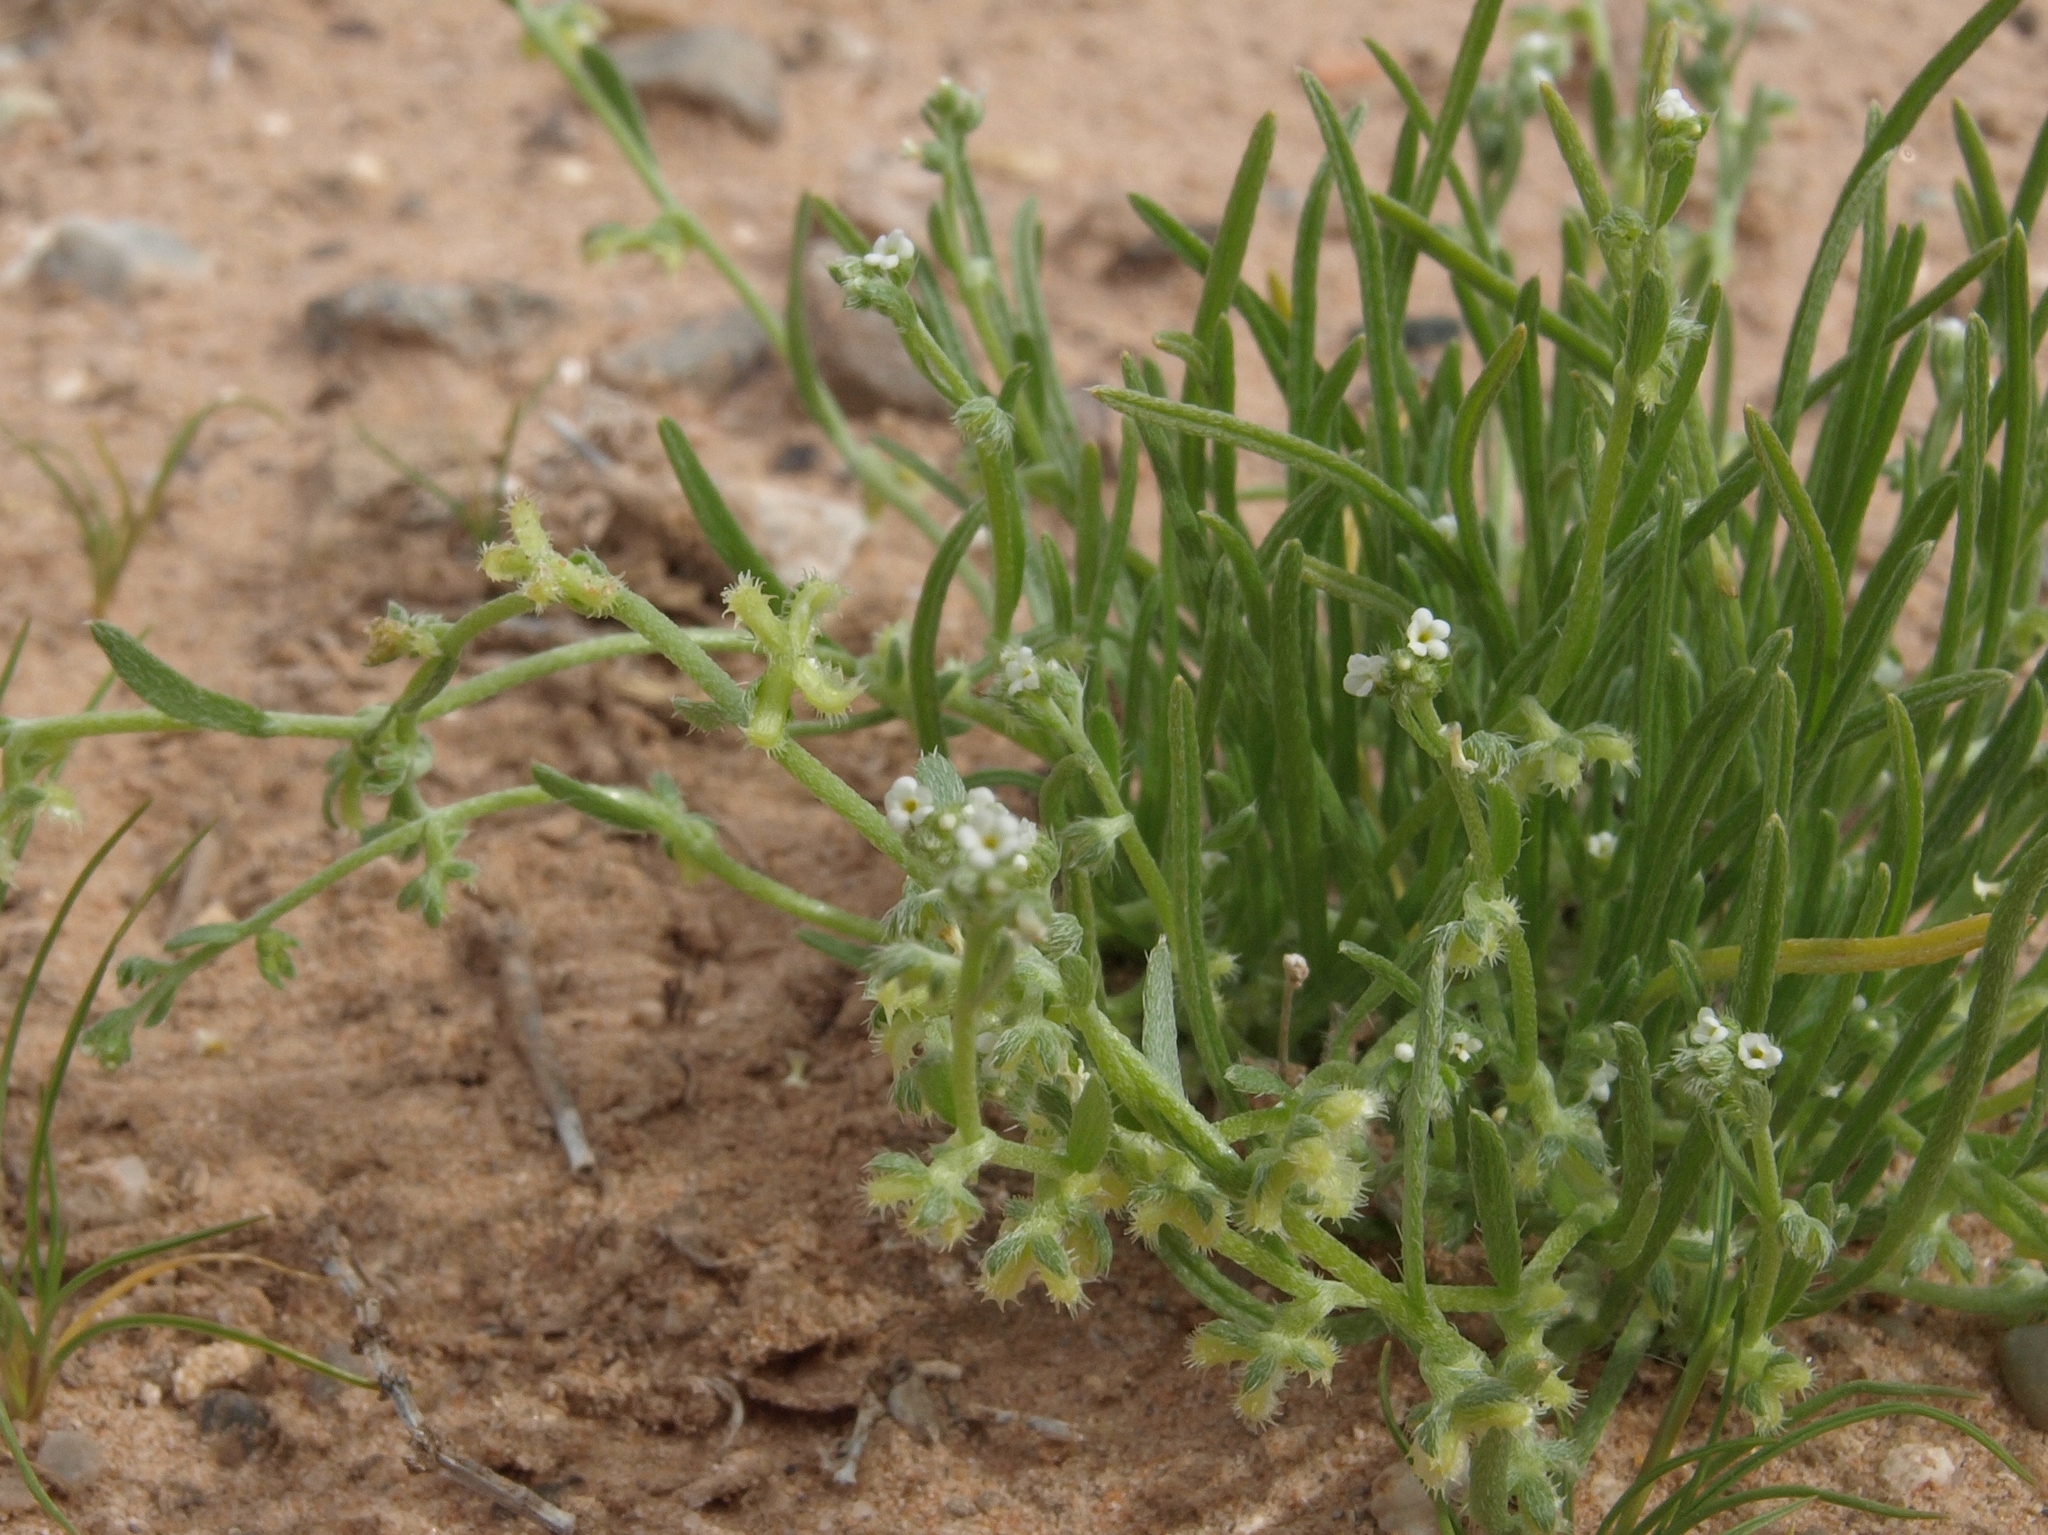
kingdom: Plantae
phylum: Tracheophyta
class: Magnoliopsida
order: Boraginales
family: Boraginaceae
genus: Pectocarya
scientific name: Pectocarya heterocarpa
